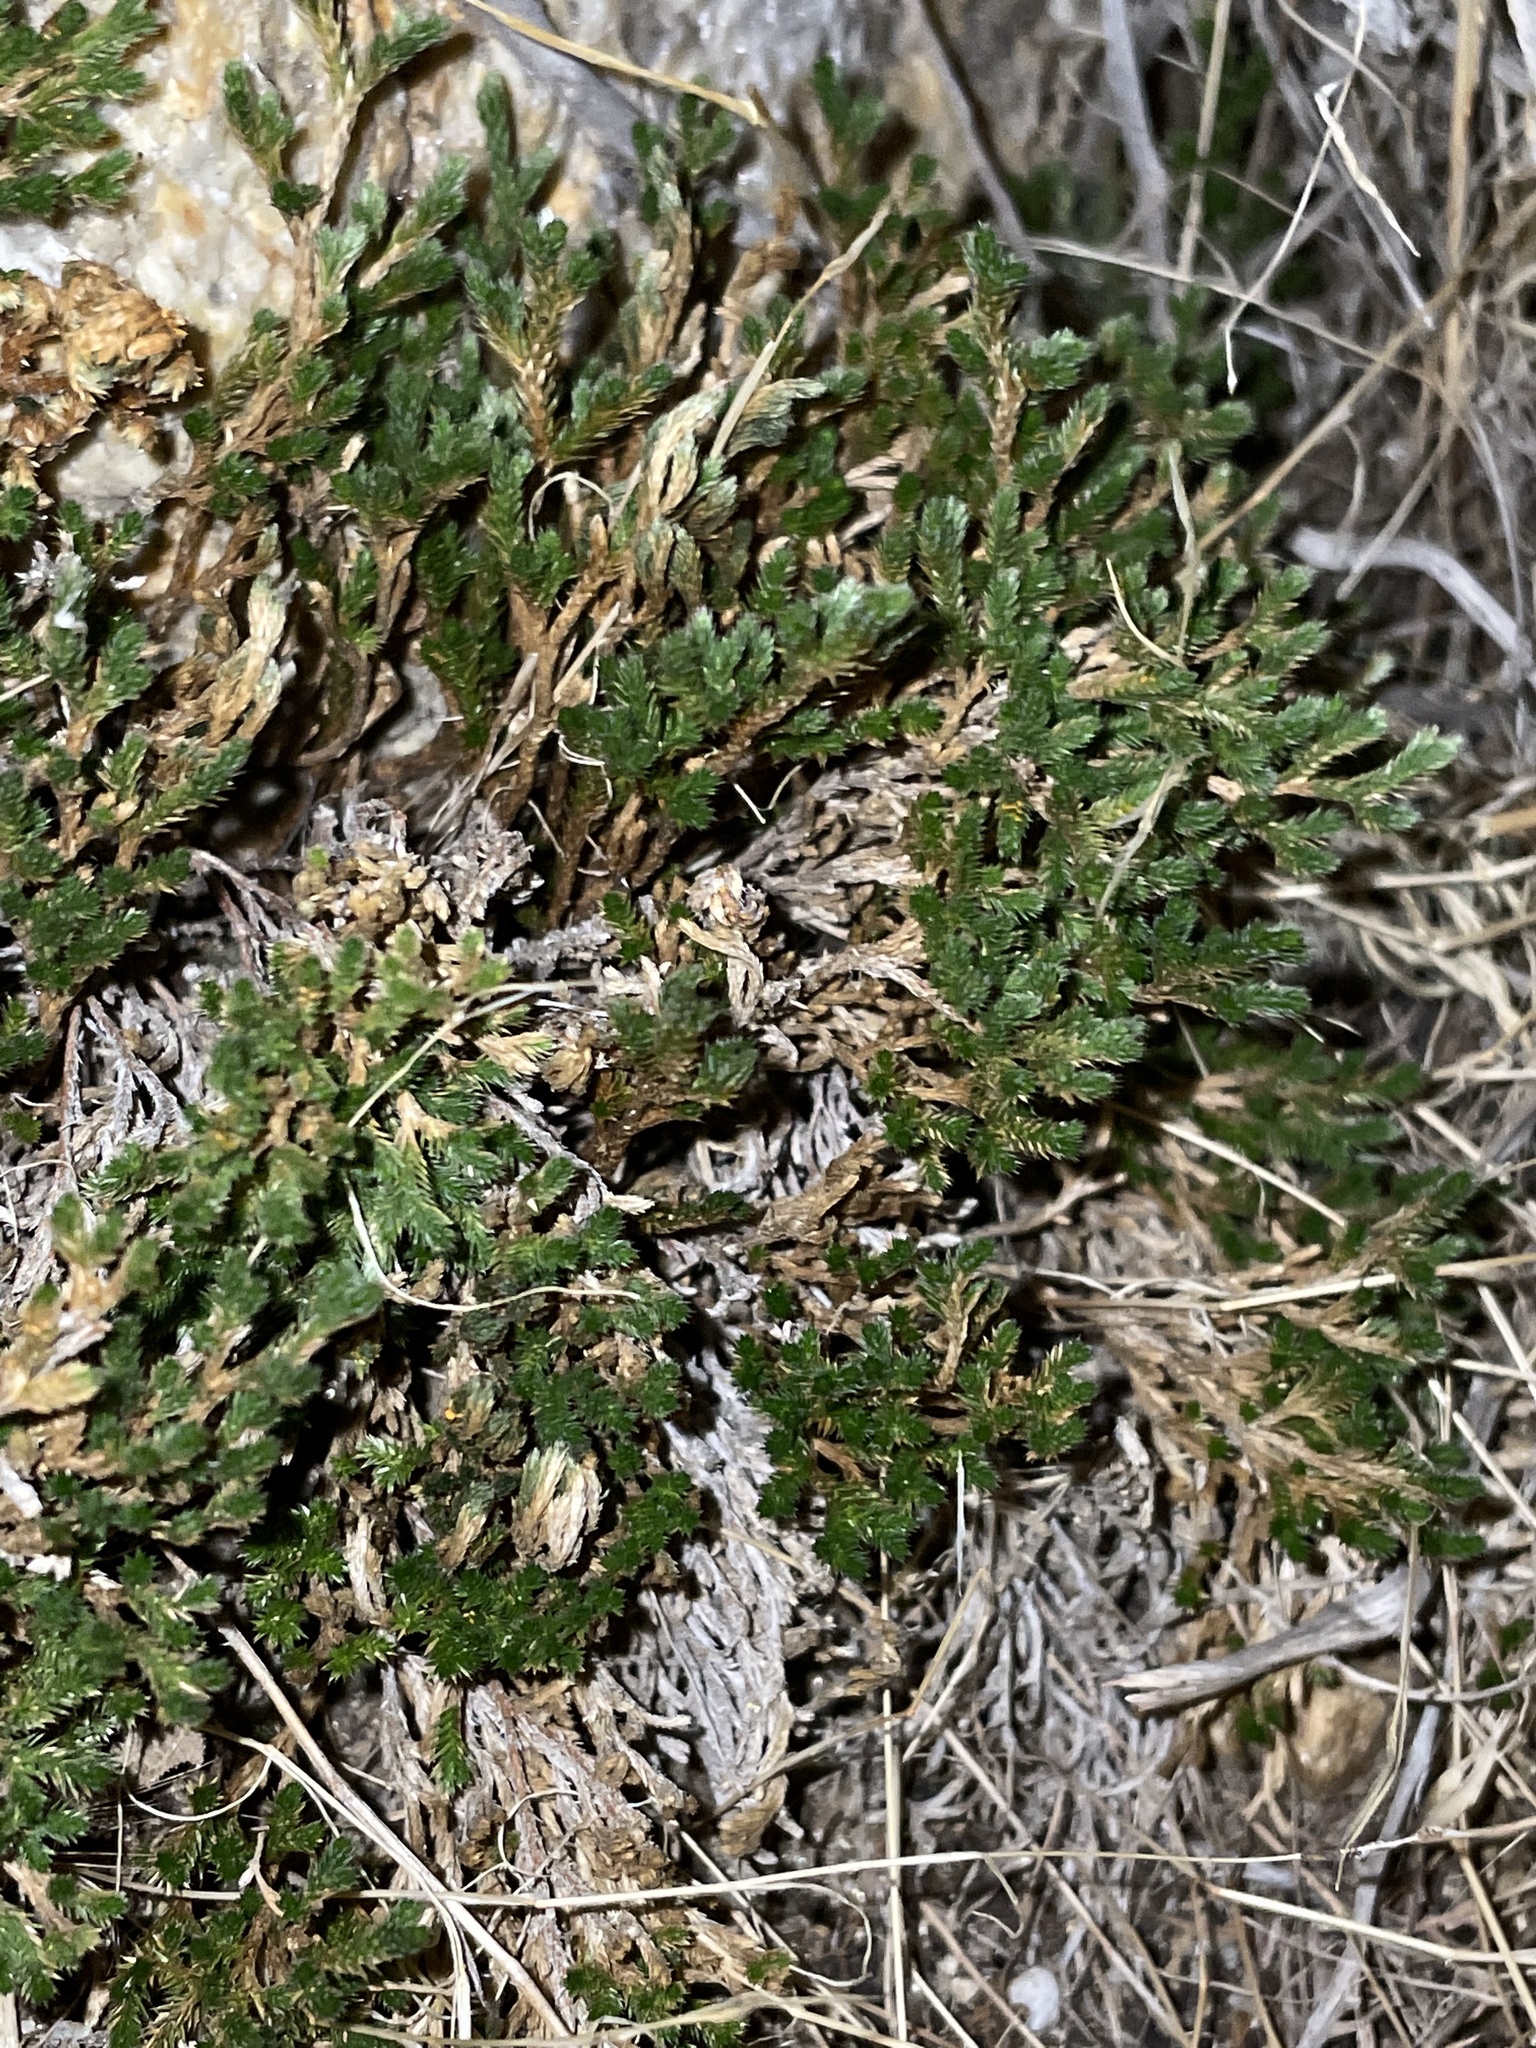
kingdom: Plantae
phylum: Tracheophyta
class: Lycopodiopsida
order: Selaginellales
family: Selaginellaceae
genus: Selaginella
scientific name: Selaginella bigelovii
